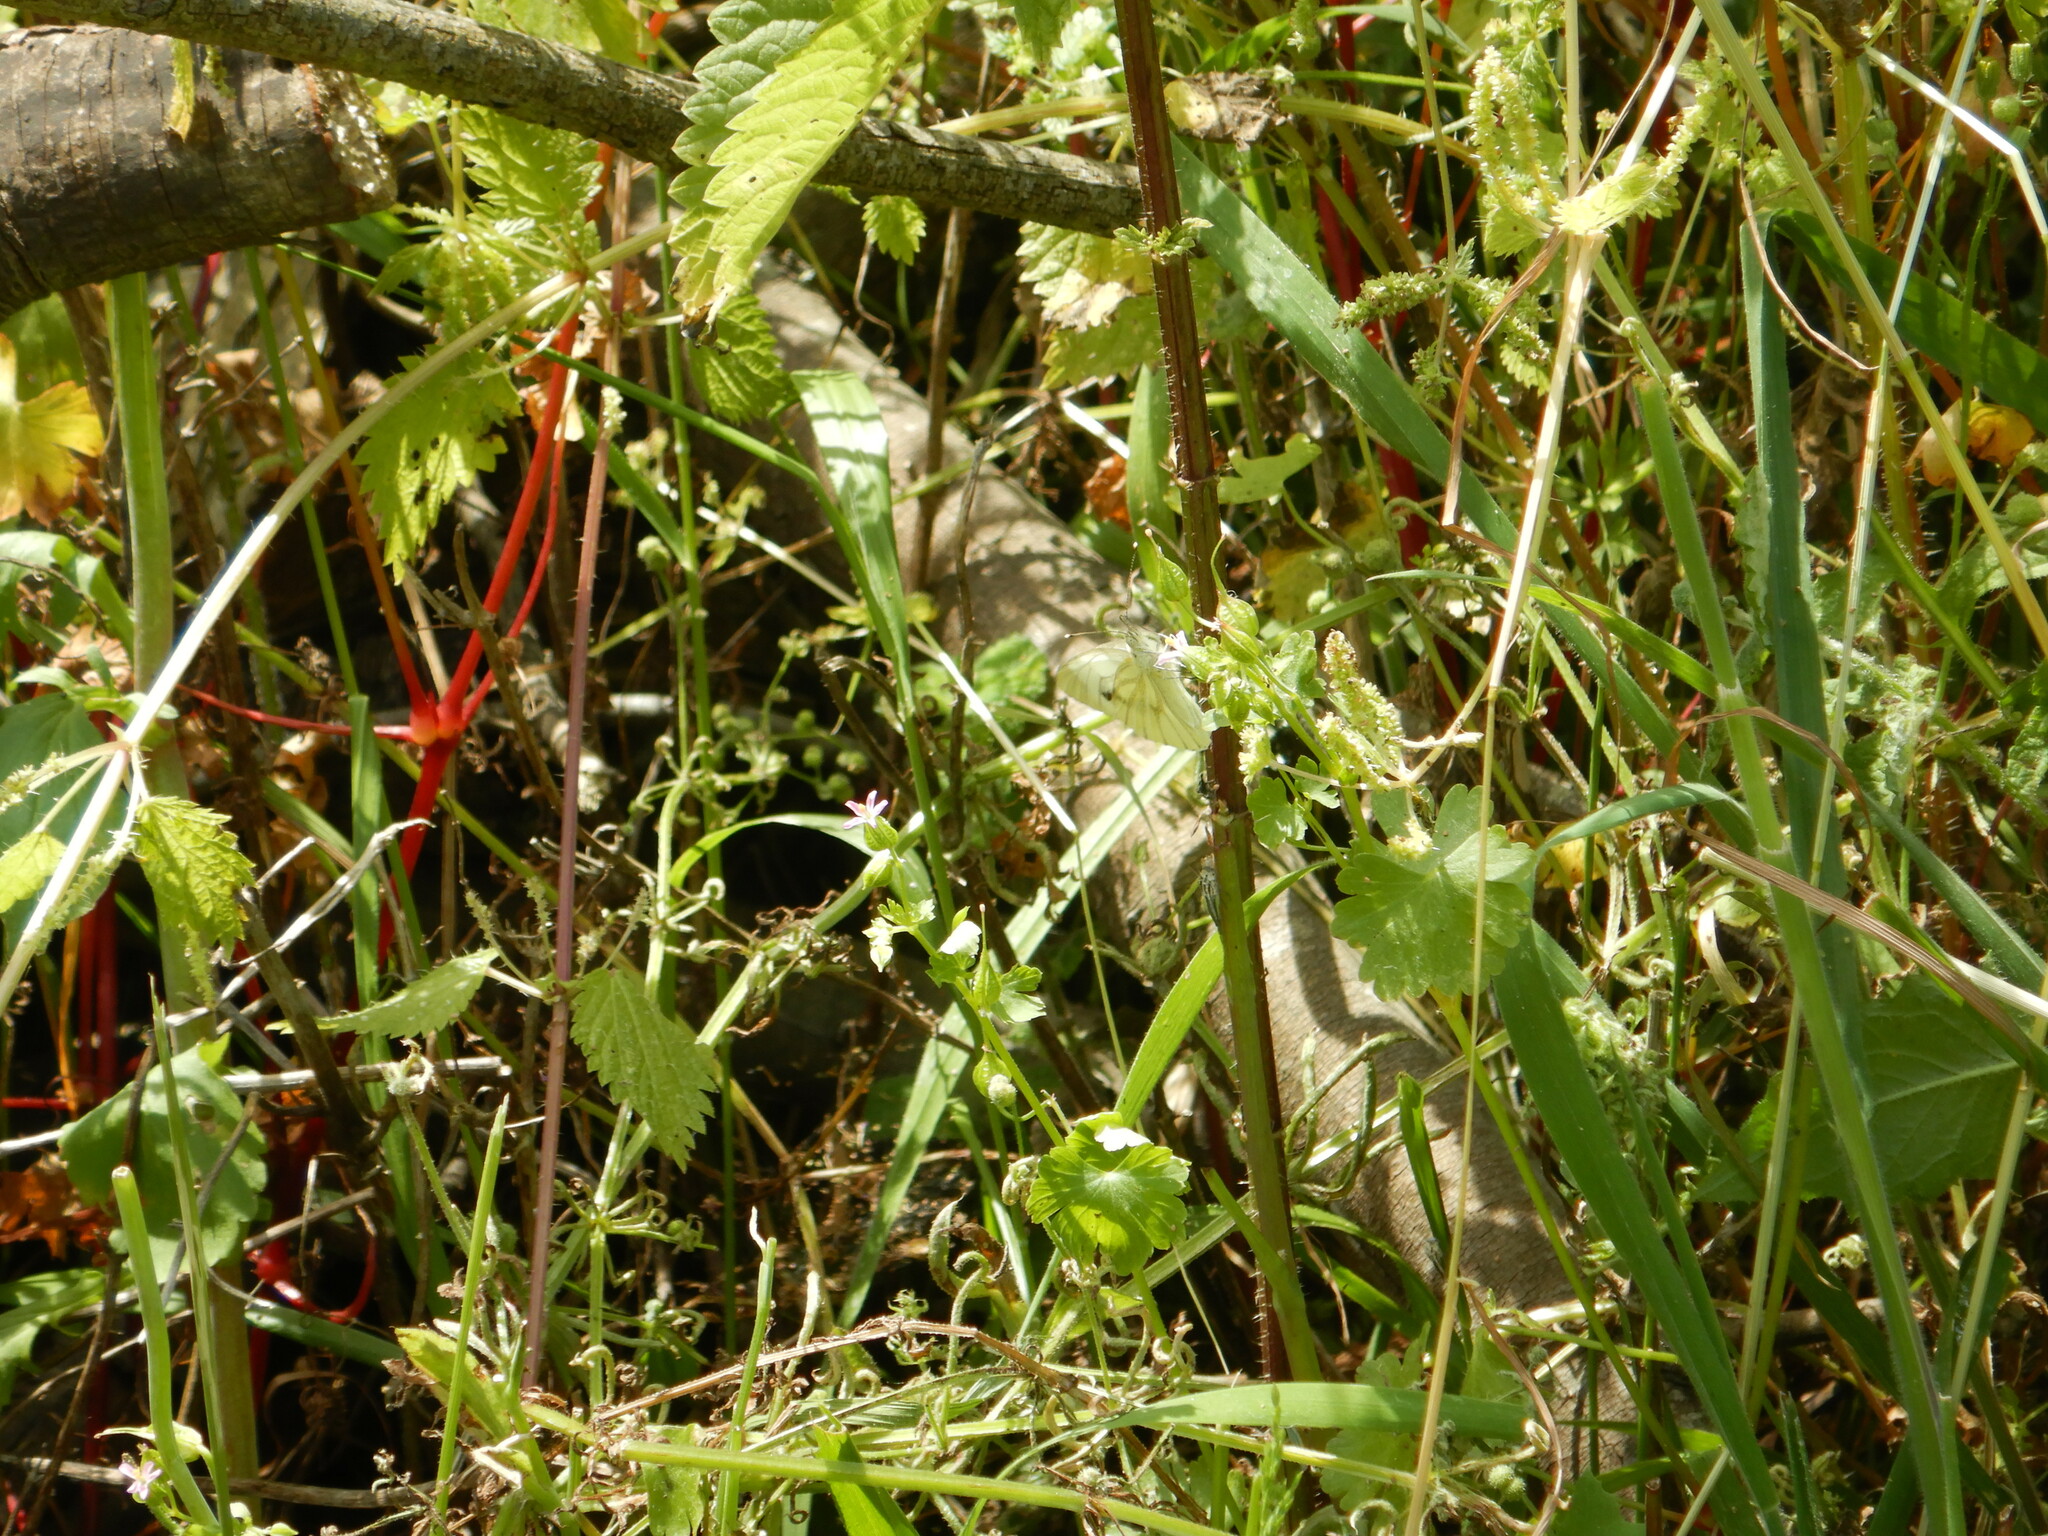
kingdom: Animalia
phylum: Arthropoda
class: Insecta
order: Lepidoptera
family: Pieridae
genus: Pieris
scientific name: Pieris napi
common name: Green-veined white
